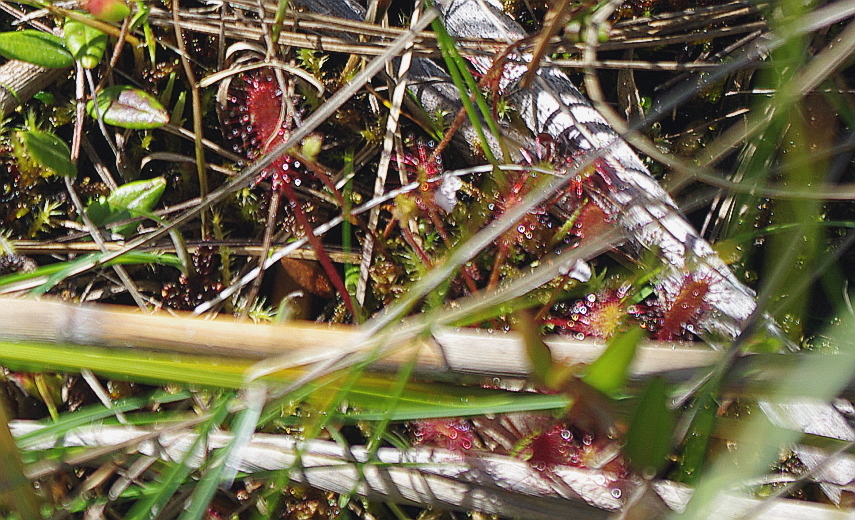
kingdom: Plantae
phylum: Tracheophyta
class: Magnoliopsida
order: Caryophyllales
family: Droseraceae
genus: Drosera
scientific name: Drosera anglica
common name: Great sundew
